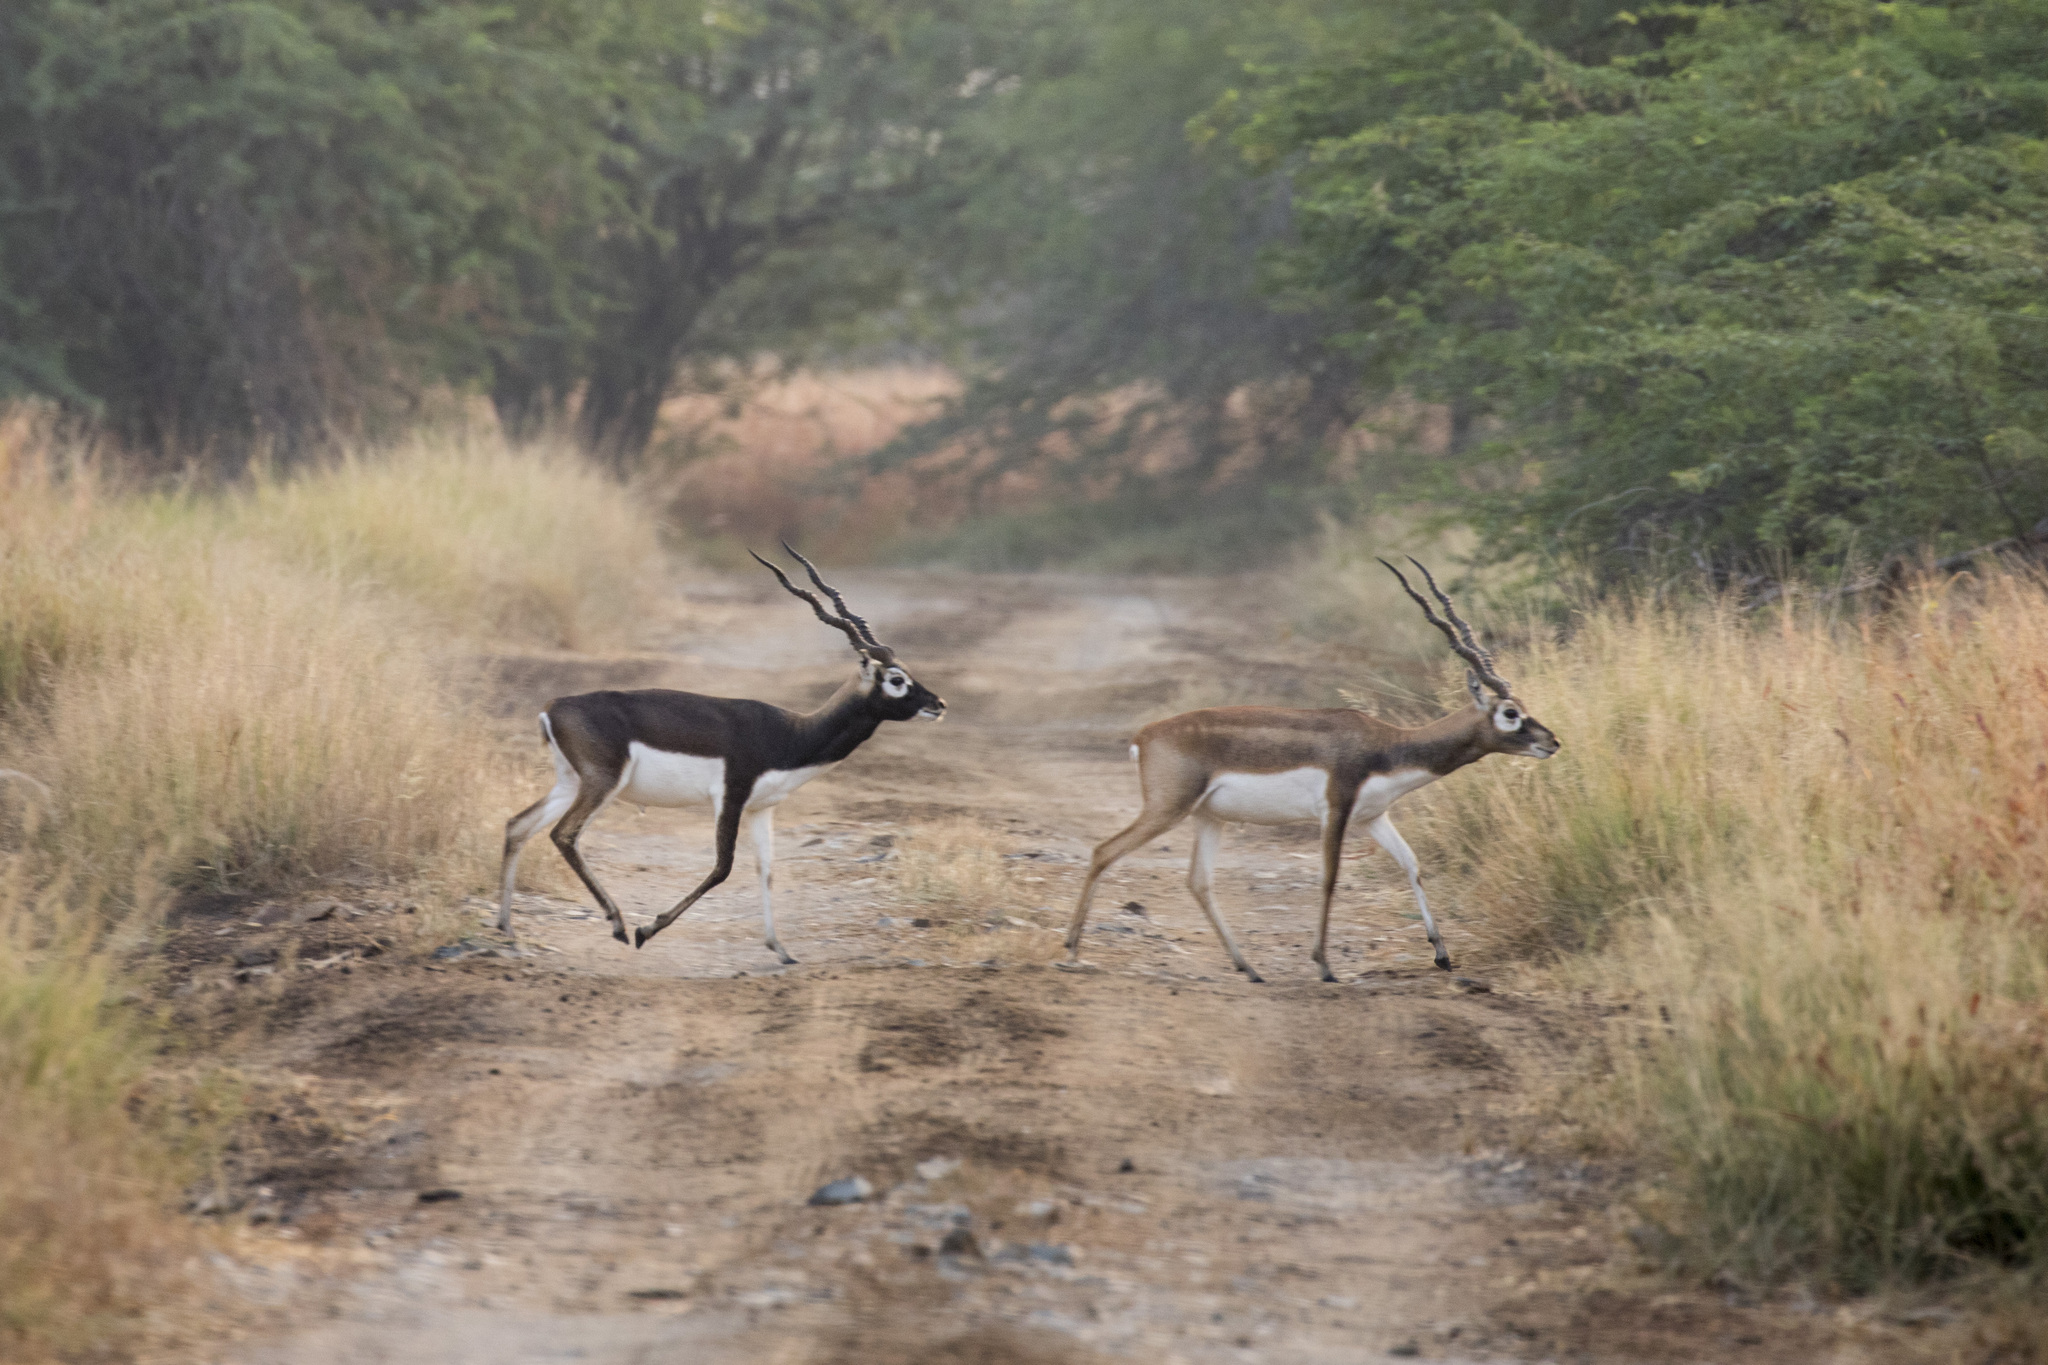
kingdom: Animalia
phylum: Chordata
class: Mammalia
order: Artiodactyla
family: Bovidae
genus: Antilope
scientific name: Antilope cervicapra
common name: Blackbuck
